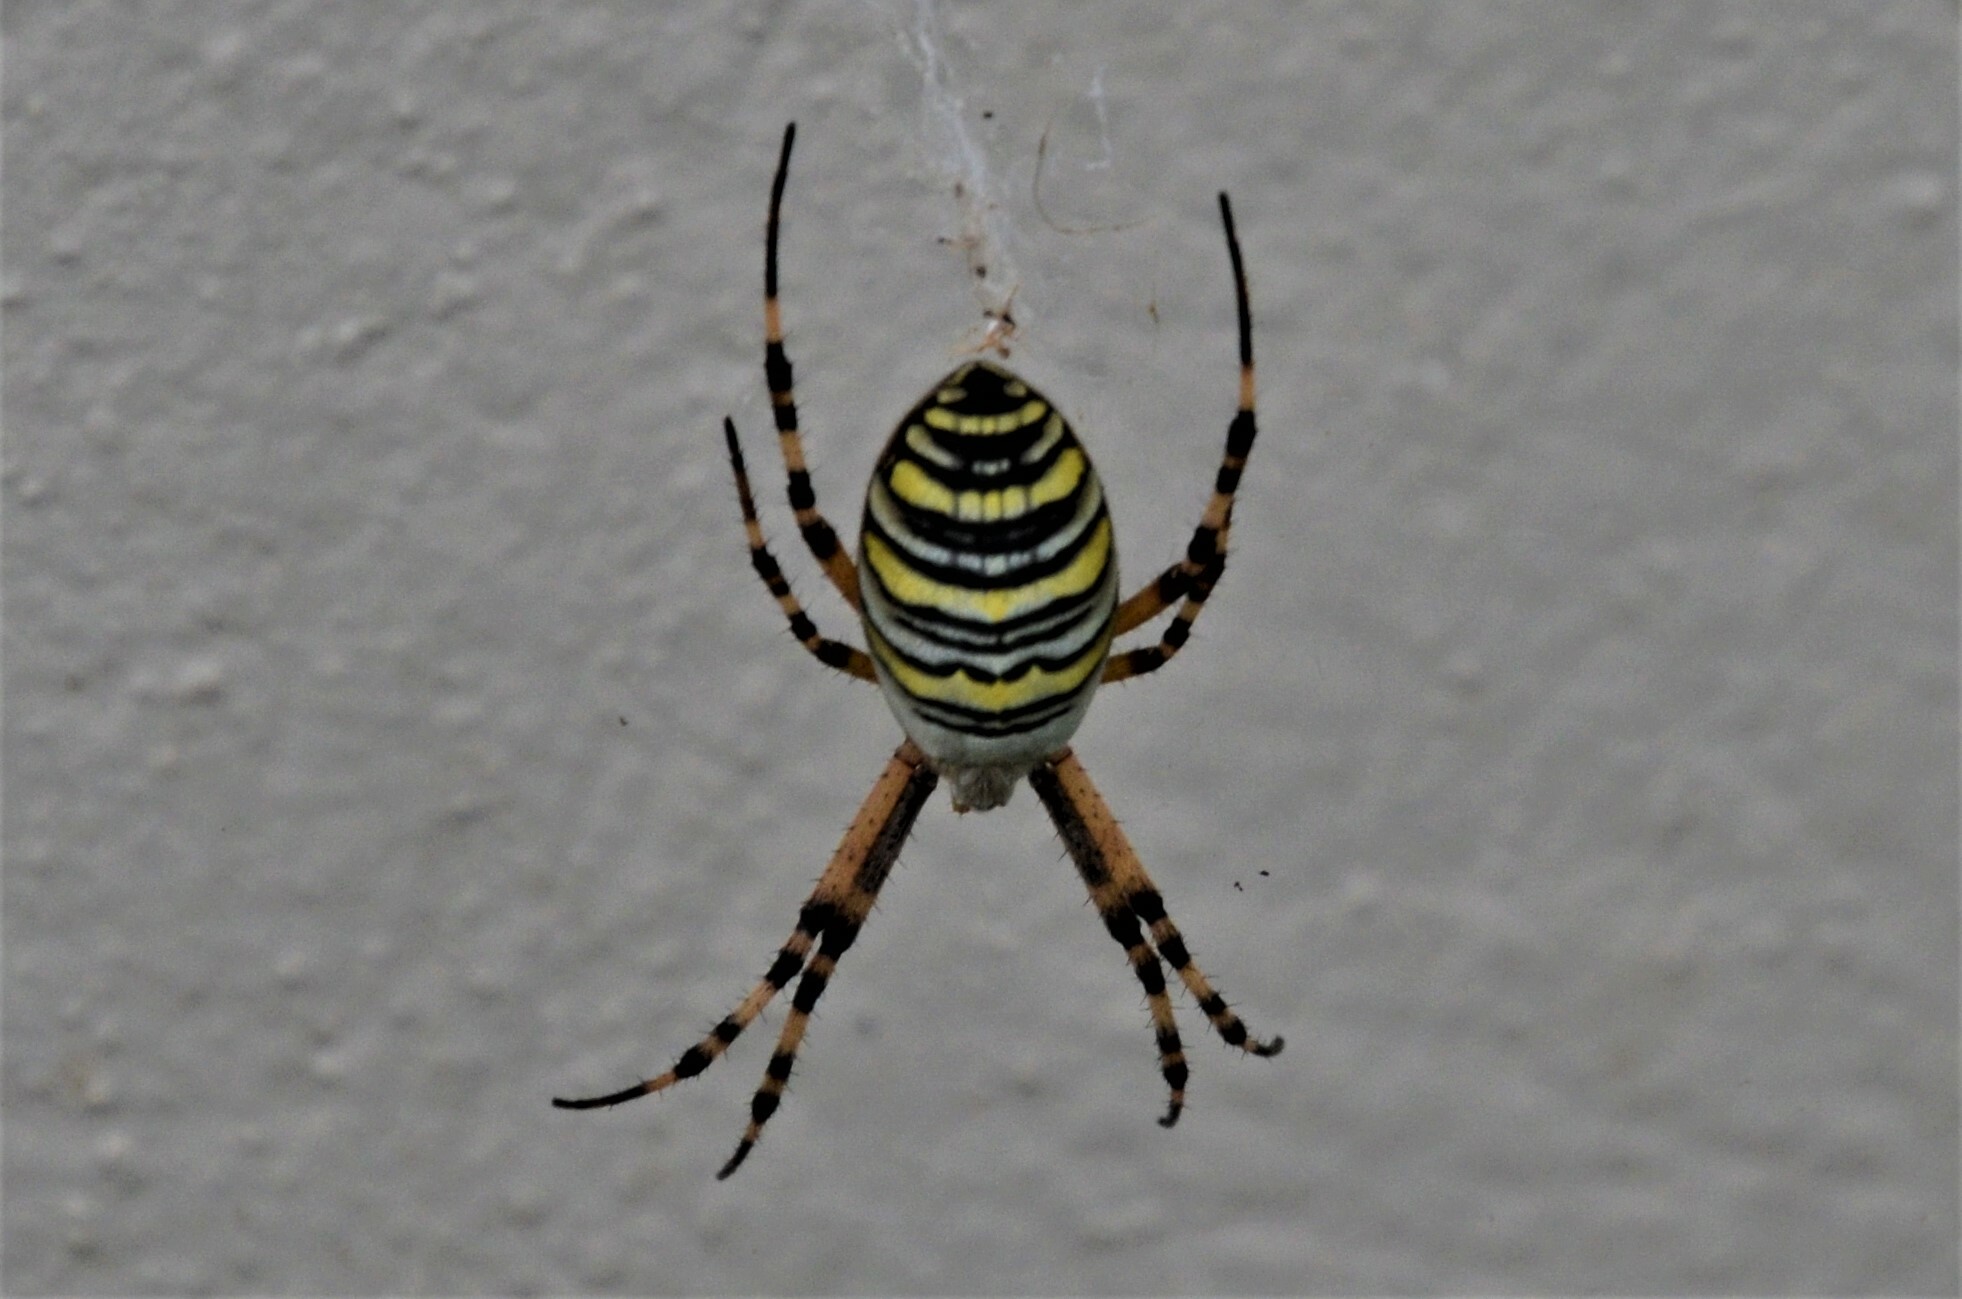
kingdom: Animalia
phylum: Arthropoda
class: Arachnida
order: Araneae
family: Araneidae
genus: Argiope
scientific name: Argiope bruennichi
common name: Wasp spider
